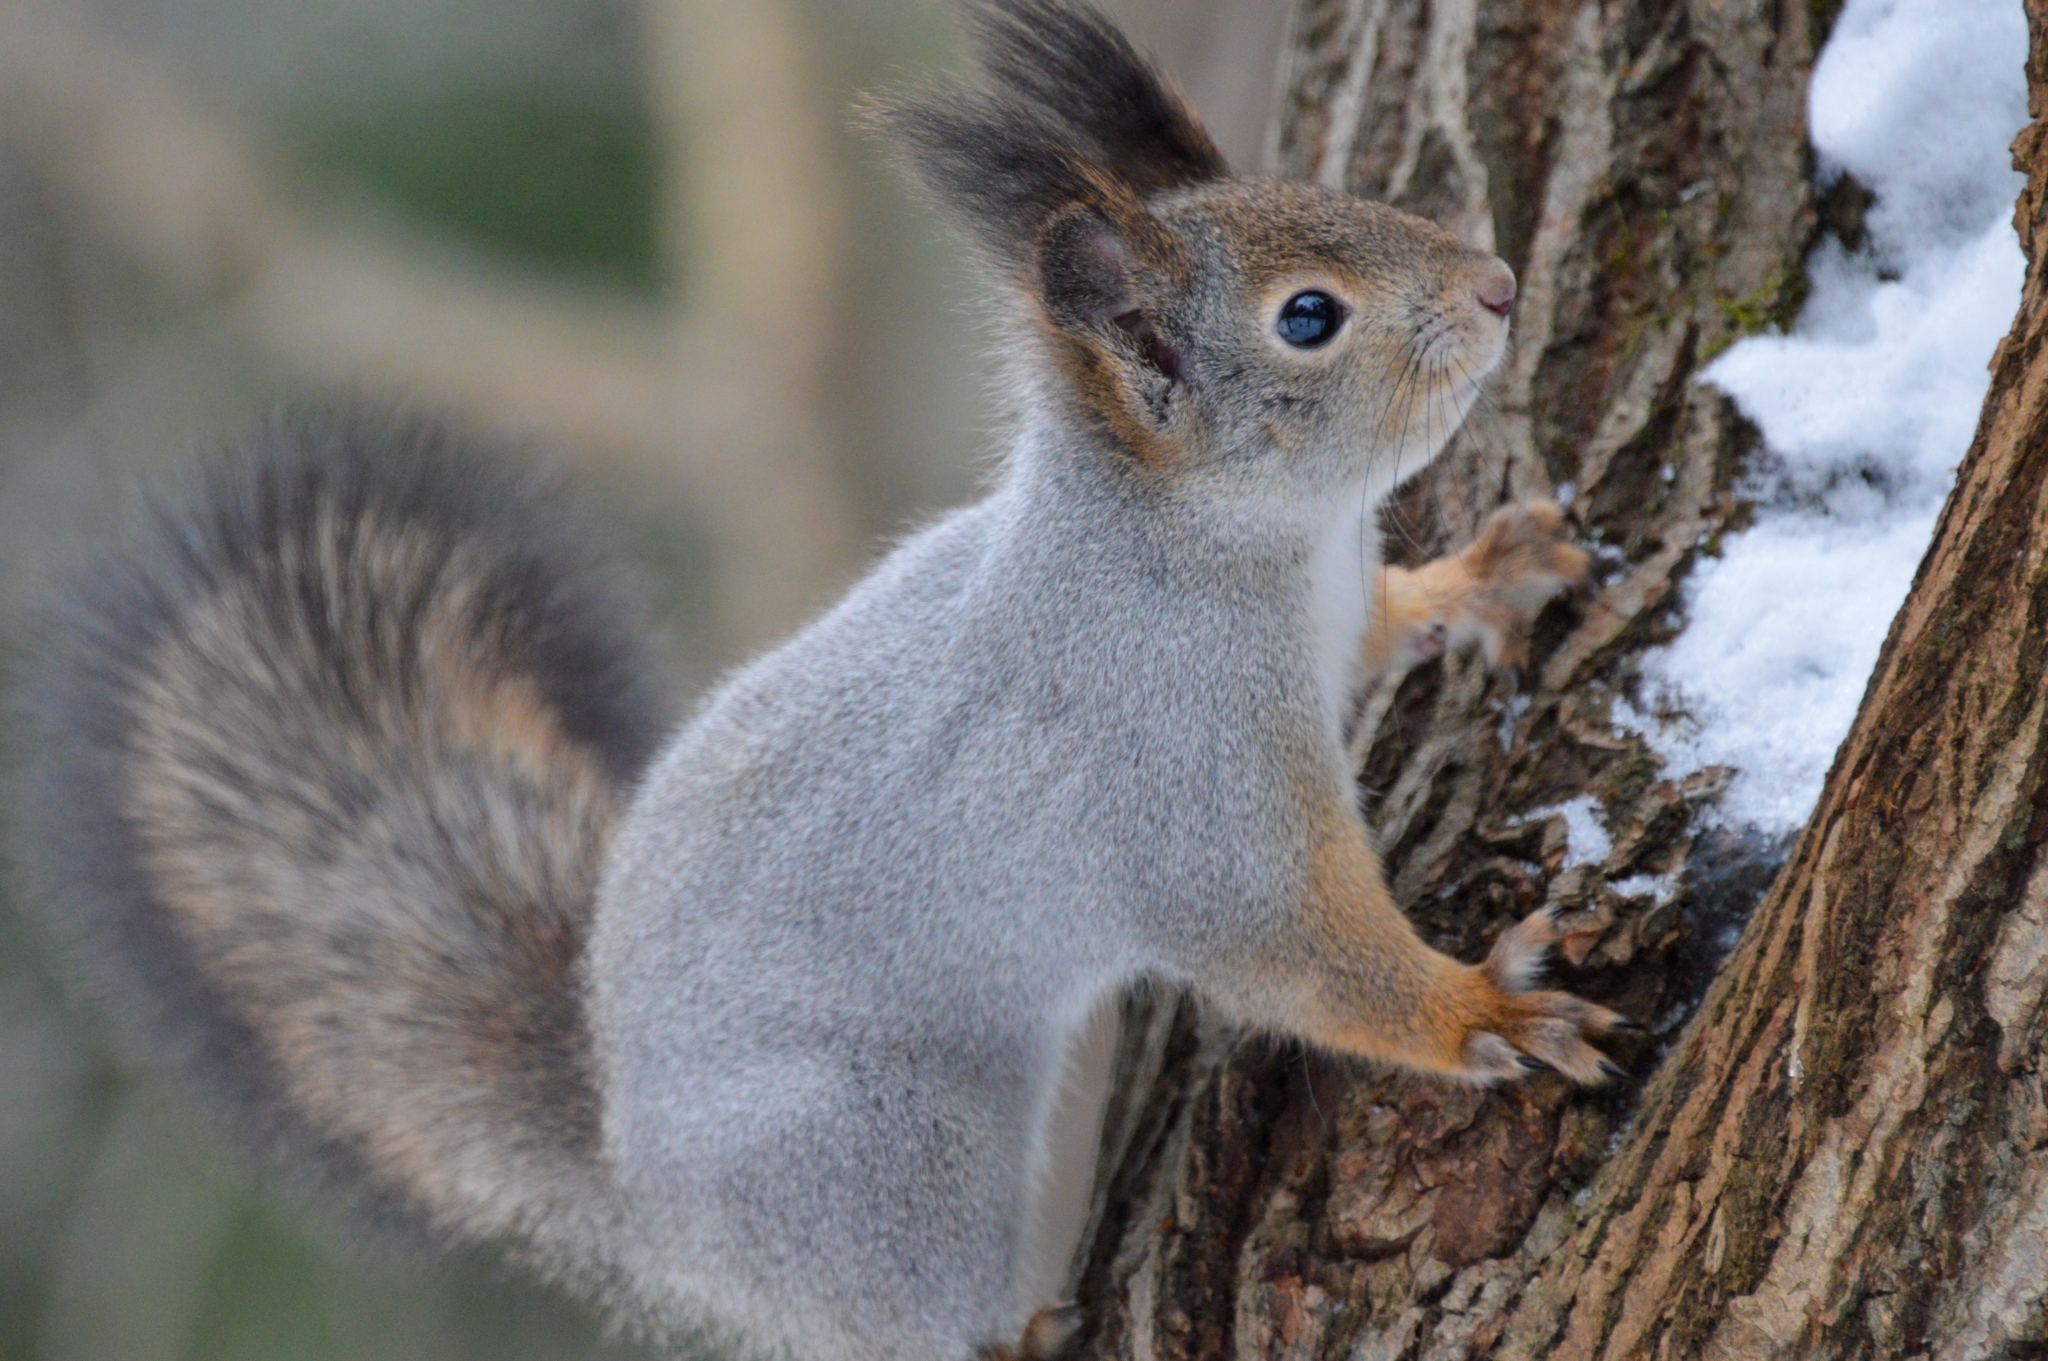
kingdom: Animalia
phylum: Chordata
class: Mammalia
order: Rodentia
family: Sciuridae
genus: Sciurus
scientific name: Sciurus vulgaris
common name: Eurasian red squirrel
